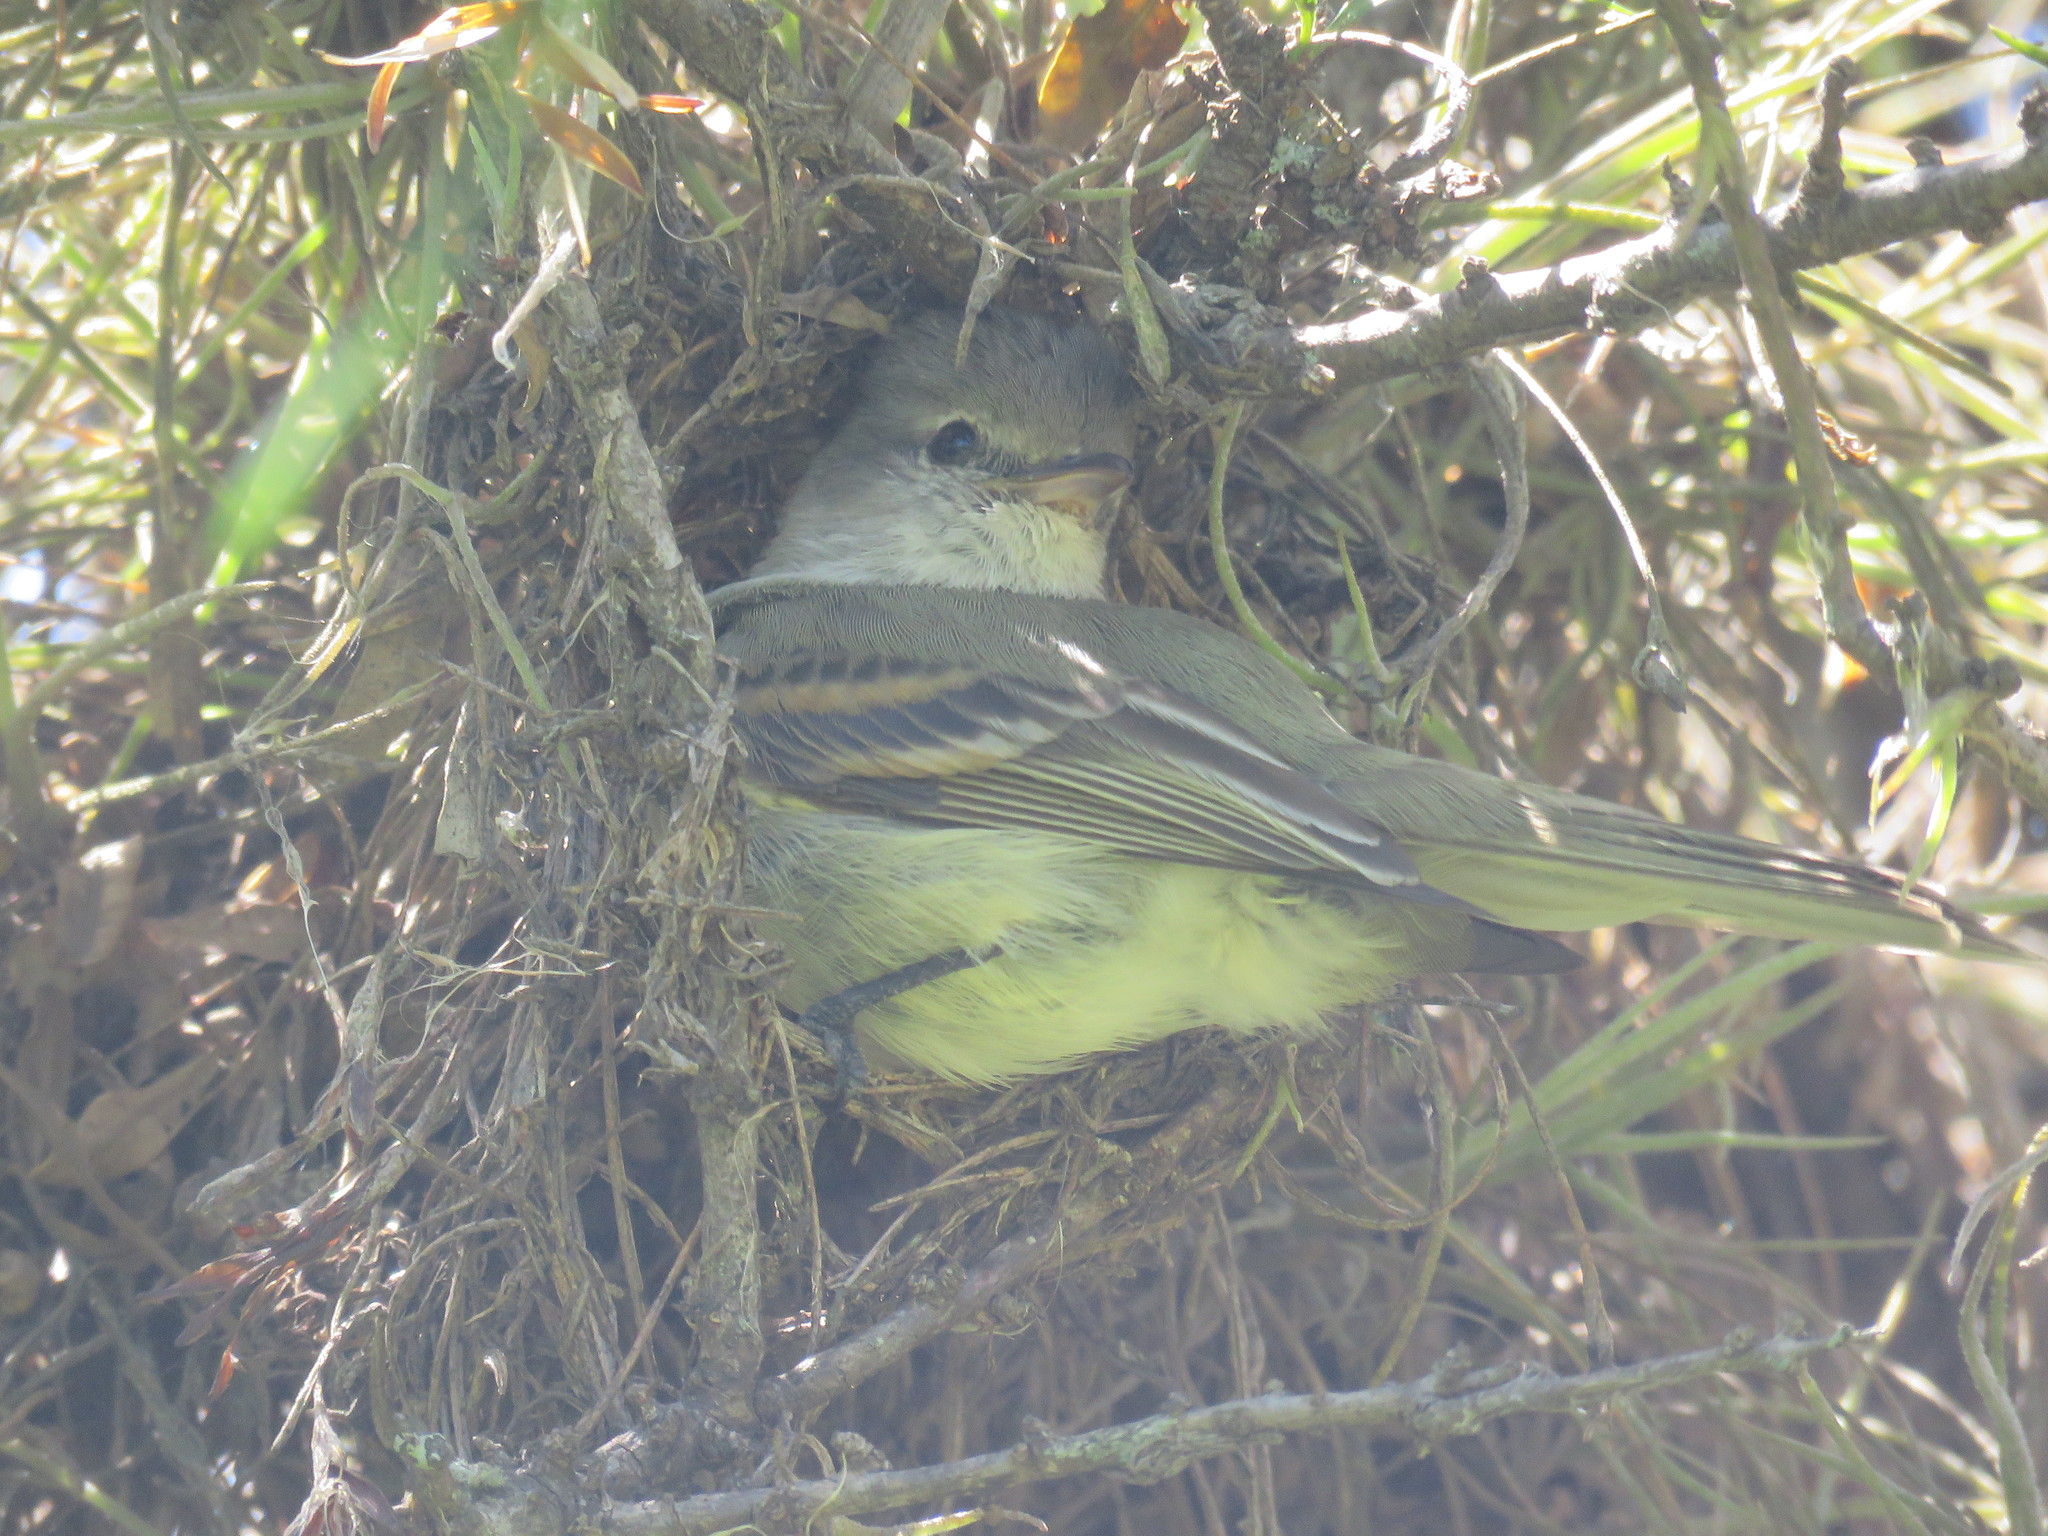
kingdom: Animalia
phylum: Chordata
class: Aves
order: Passeriformes
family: Tyrannidae
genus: Camptostoma
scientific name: Camptostoma obsoletum
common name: Southern beardless-tyrannulet
